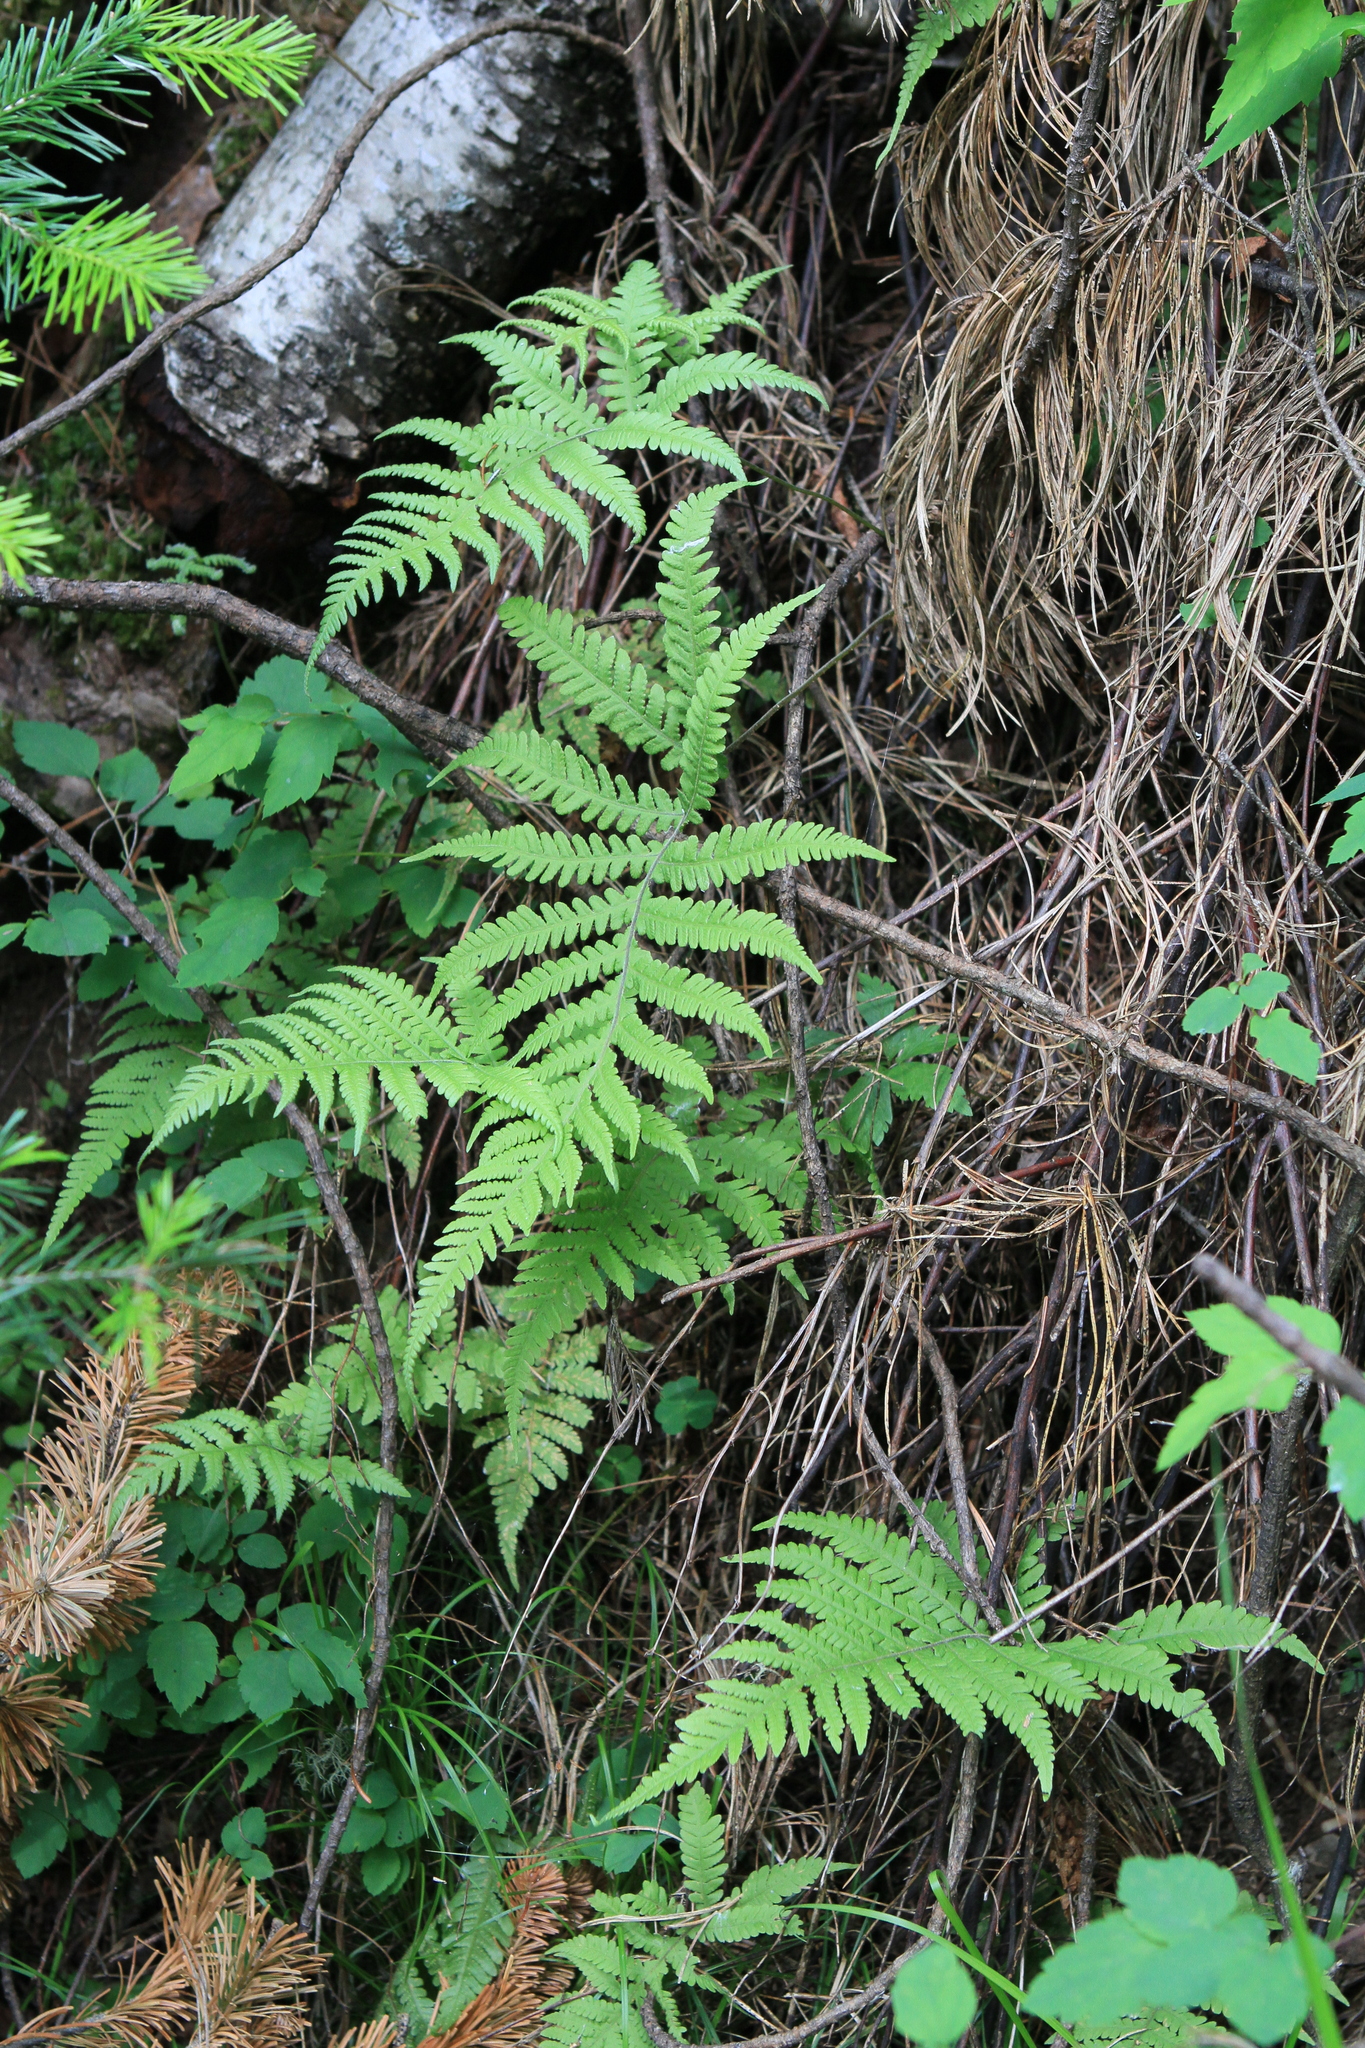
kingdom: Plantae
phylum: Tracheophyta
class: Polypodiopsida
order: Polypodiales
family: Thelypteridaceae
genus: Phegopteris
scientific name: Phegopteris connectilis
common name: Beech fern
